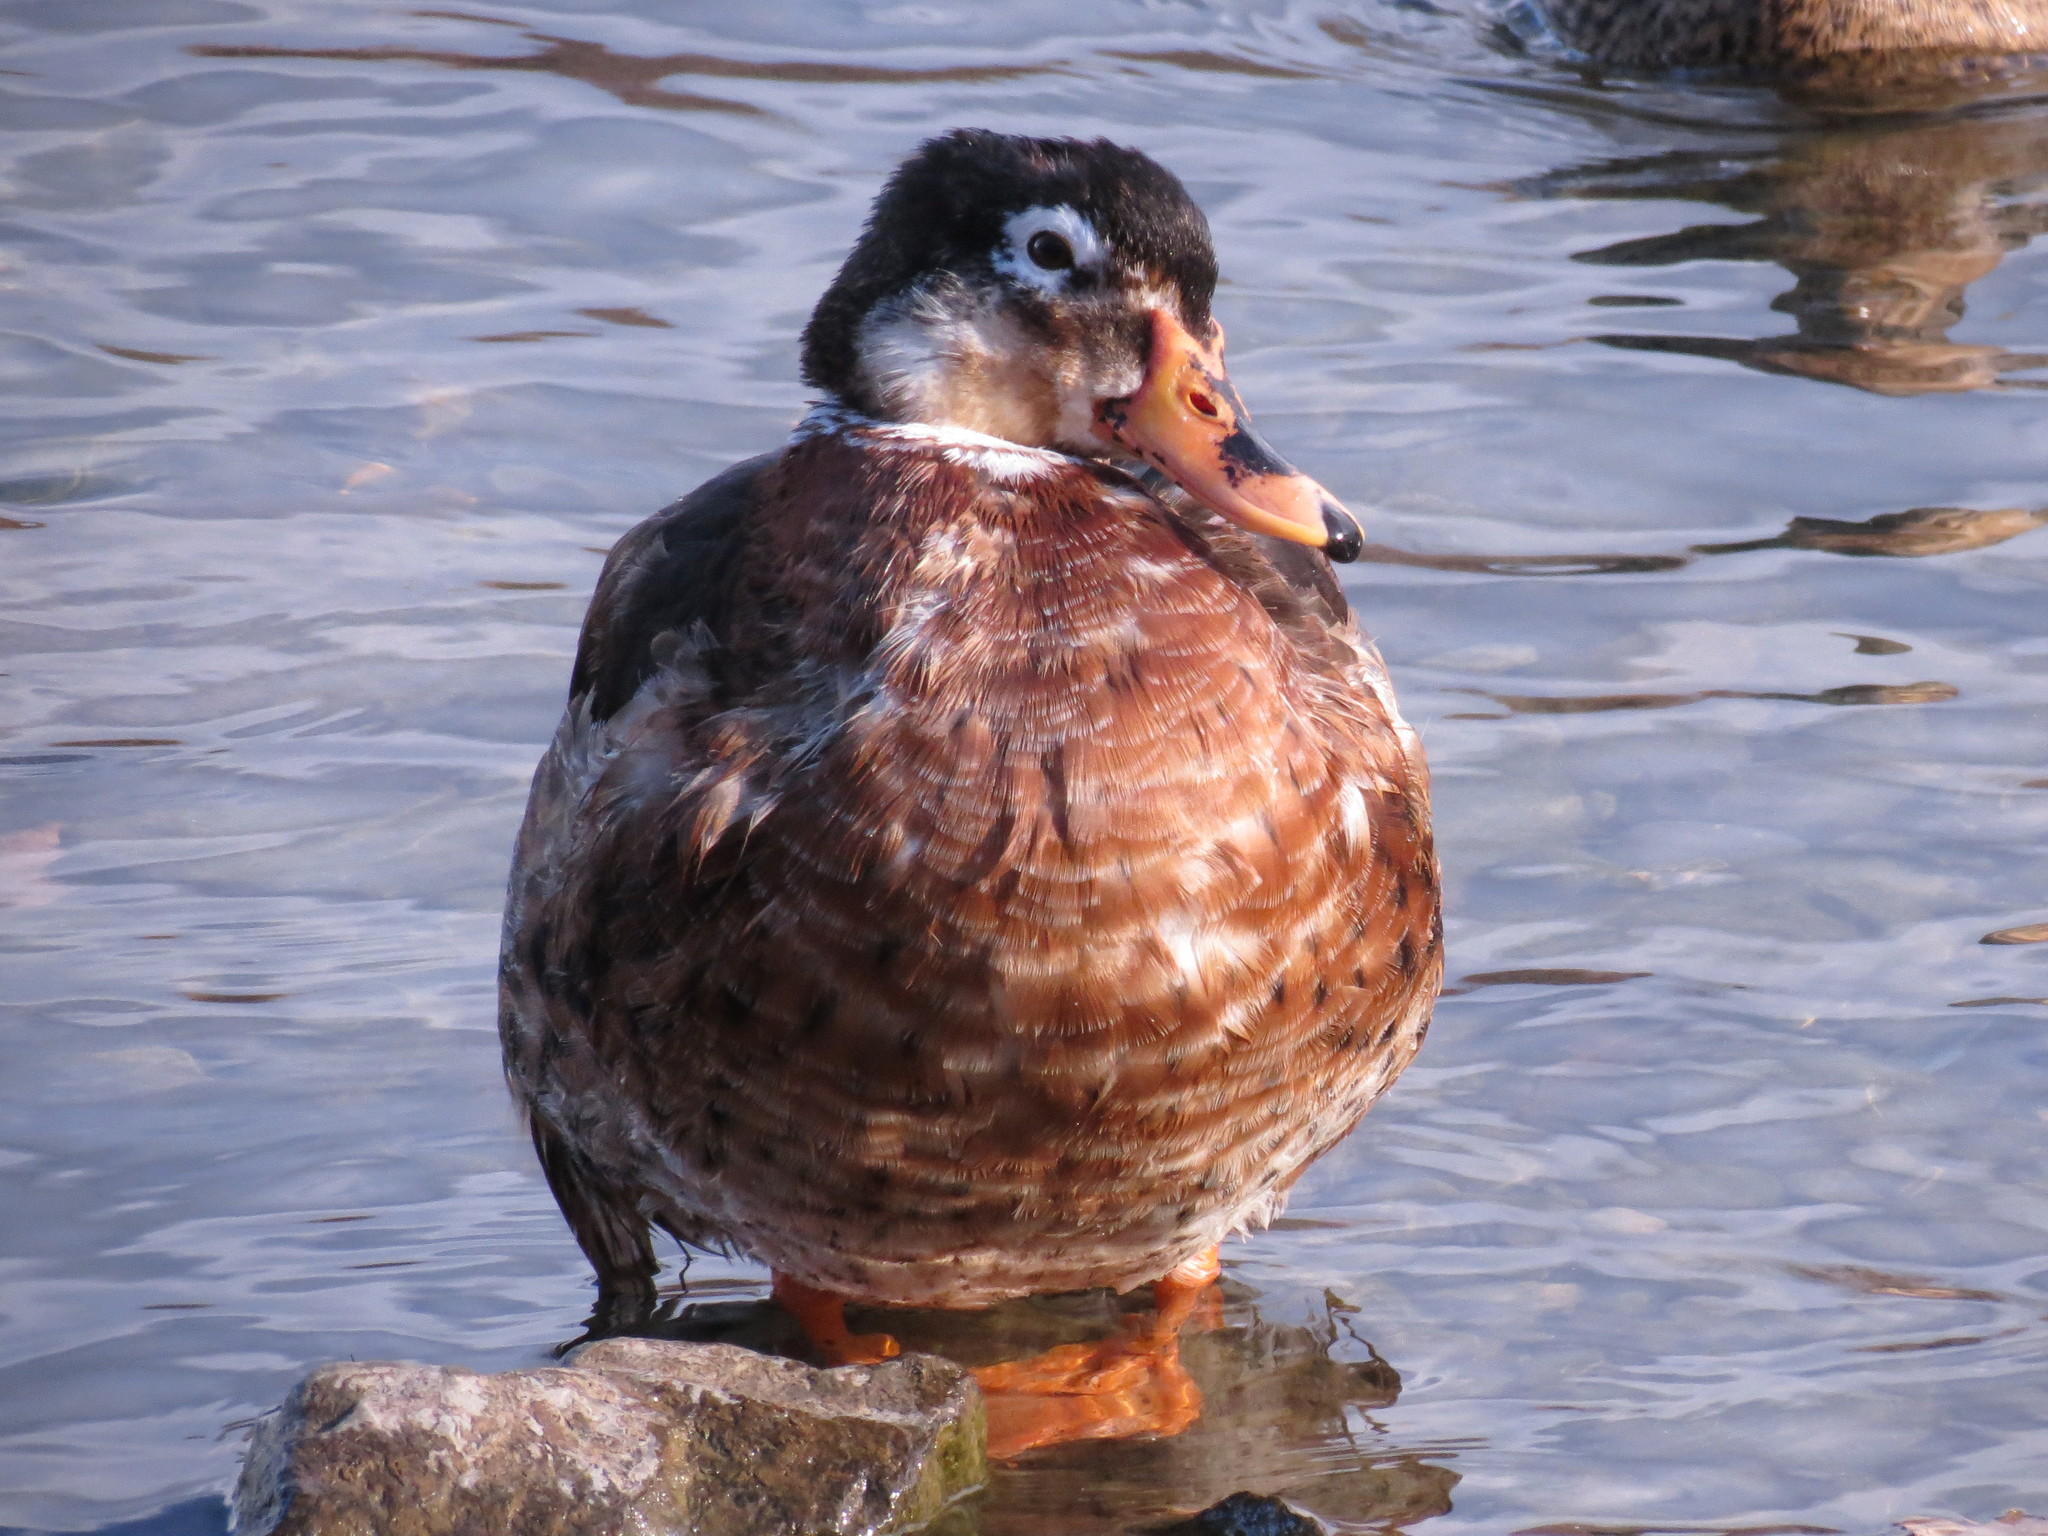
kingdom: Animalia
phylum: Chordata
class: Aves
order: Anseriformes
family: Anatidae
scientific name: Anatidae
